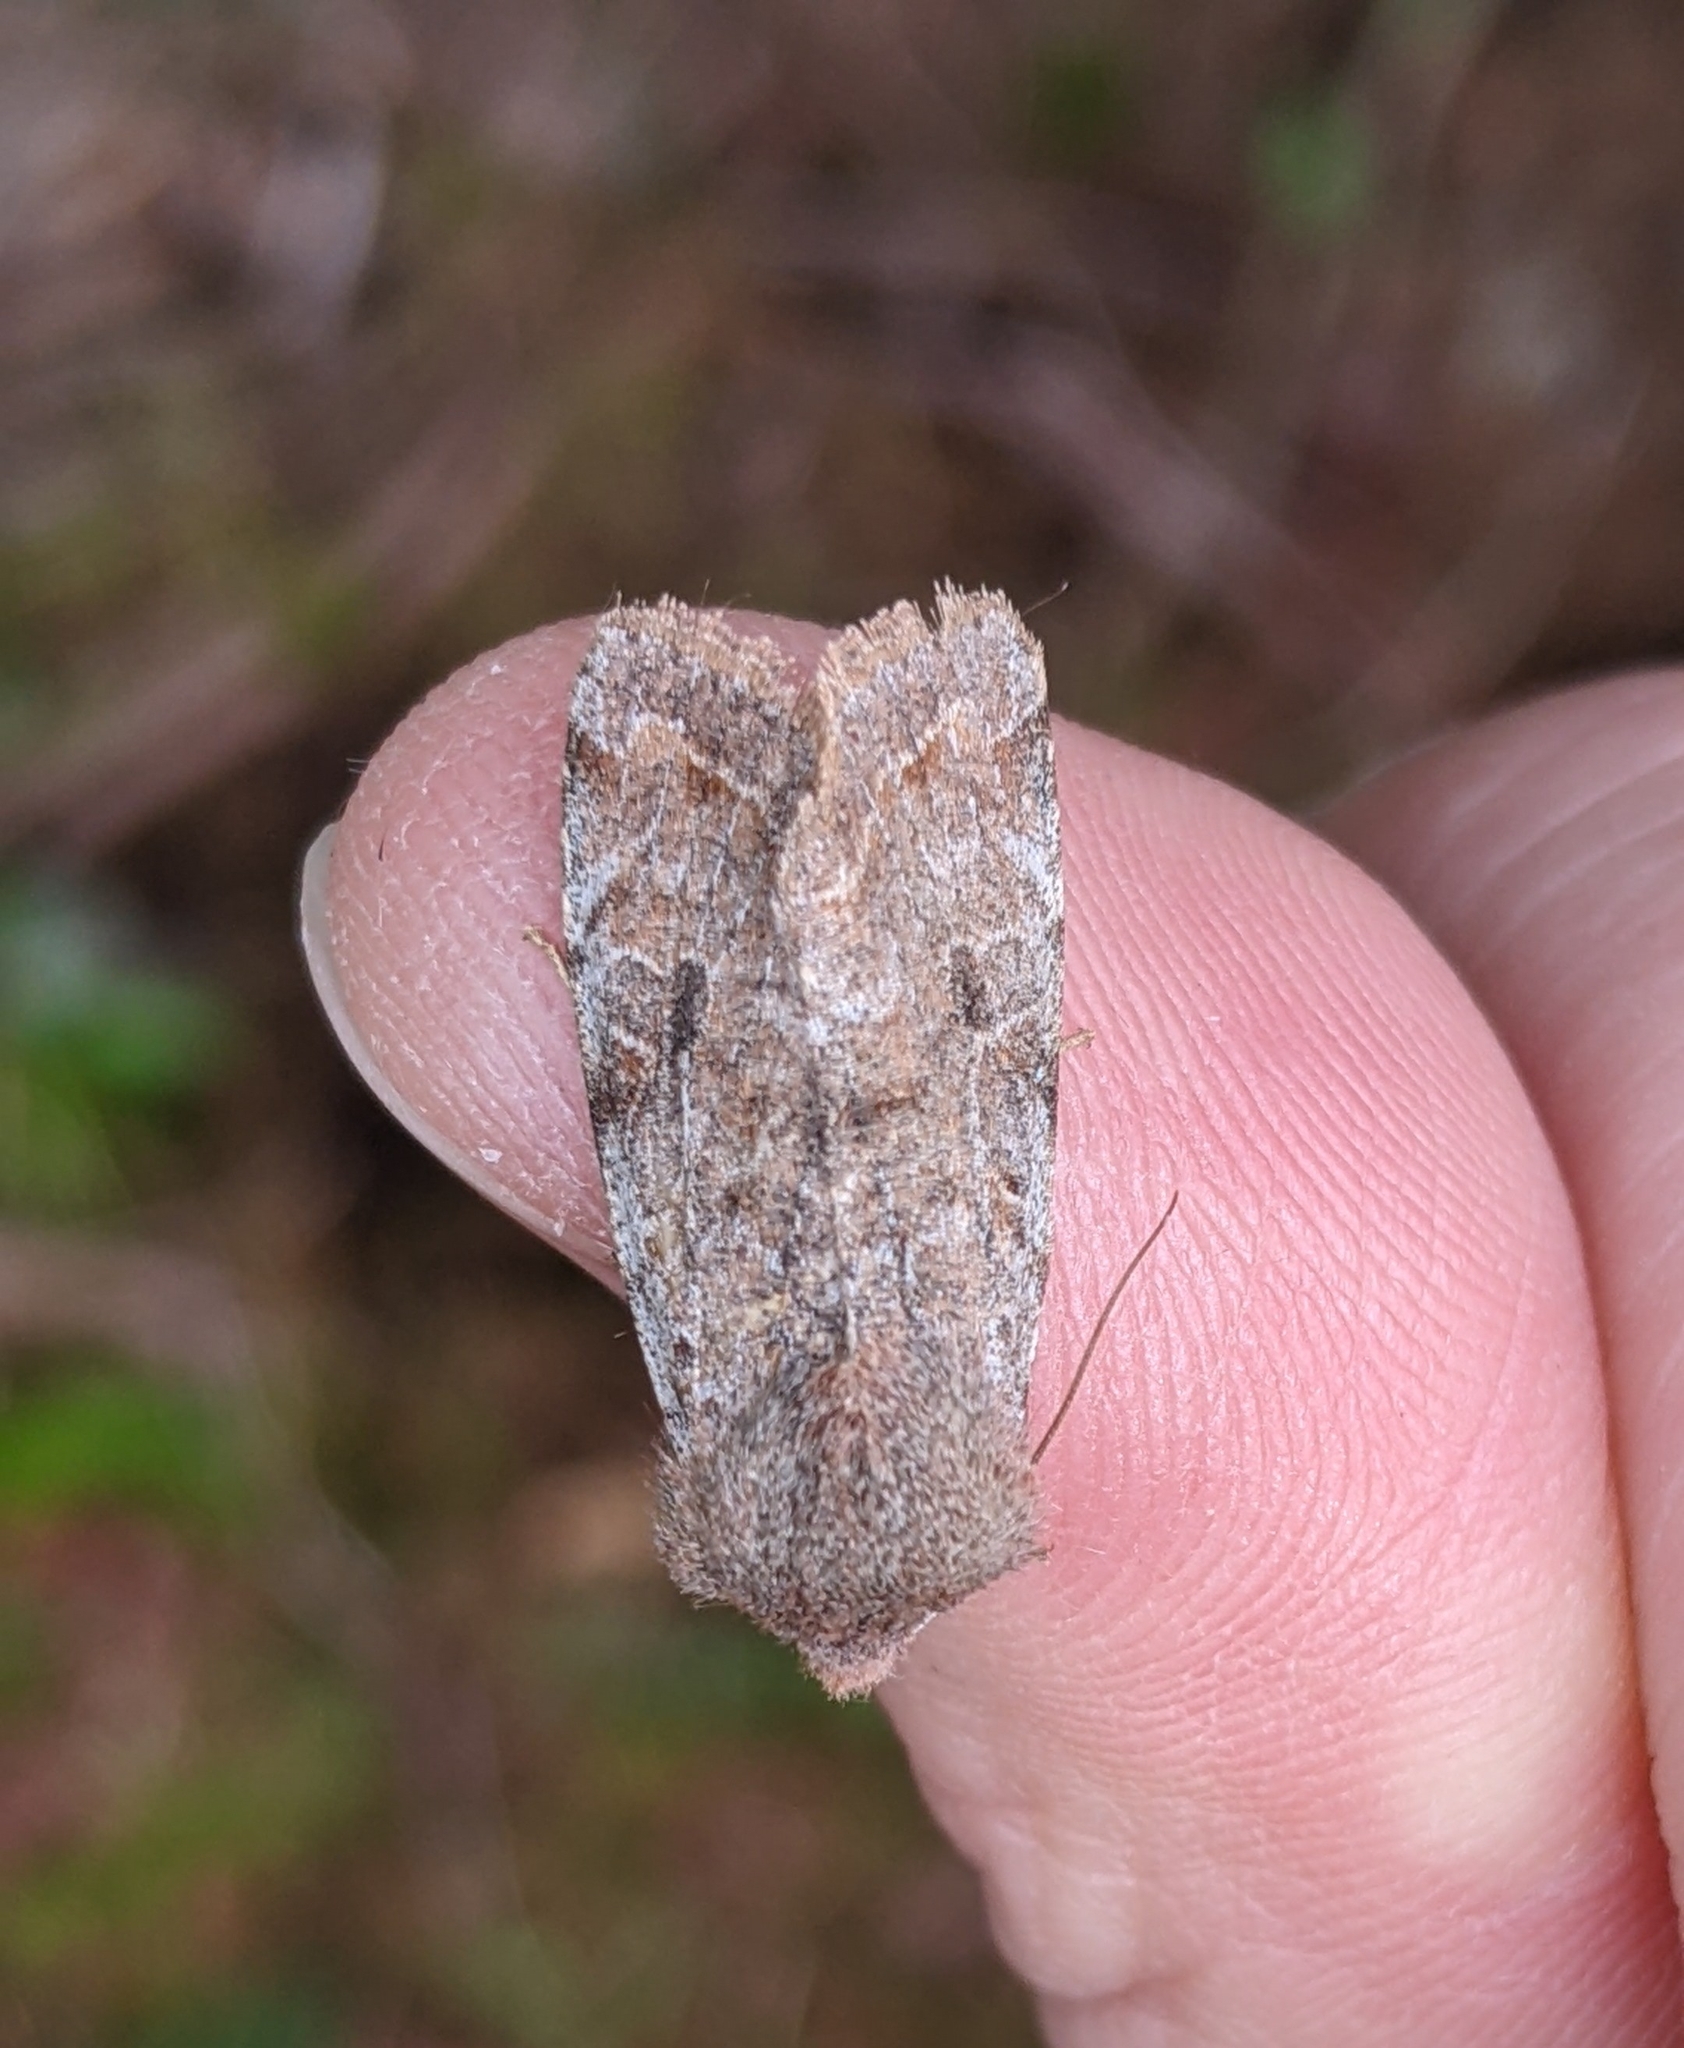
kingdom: Animalia
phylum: Arthropoda
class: Insecta
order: Lepidoptera
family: Noctuidae
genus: Orthosia
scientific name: Orthosia hibisci
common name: Green fruitworm
